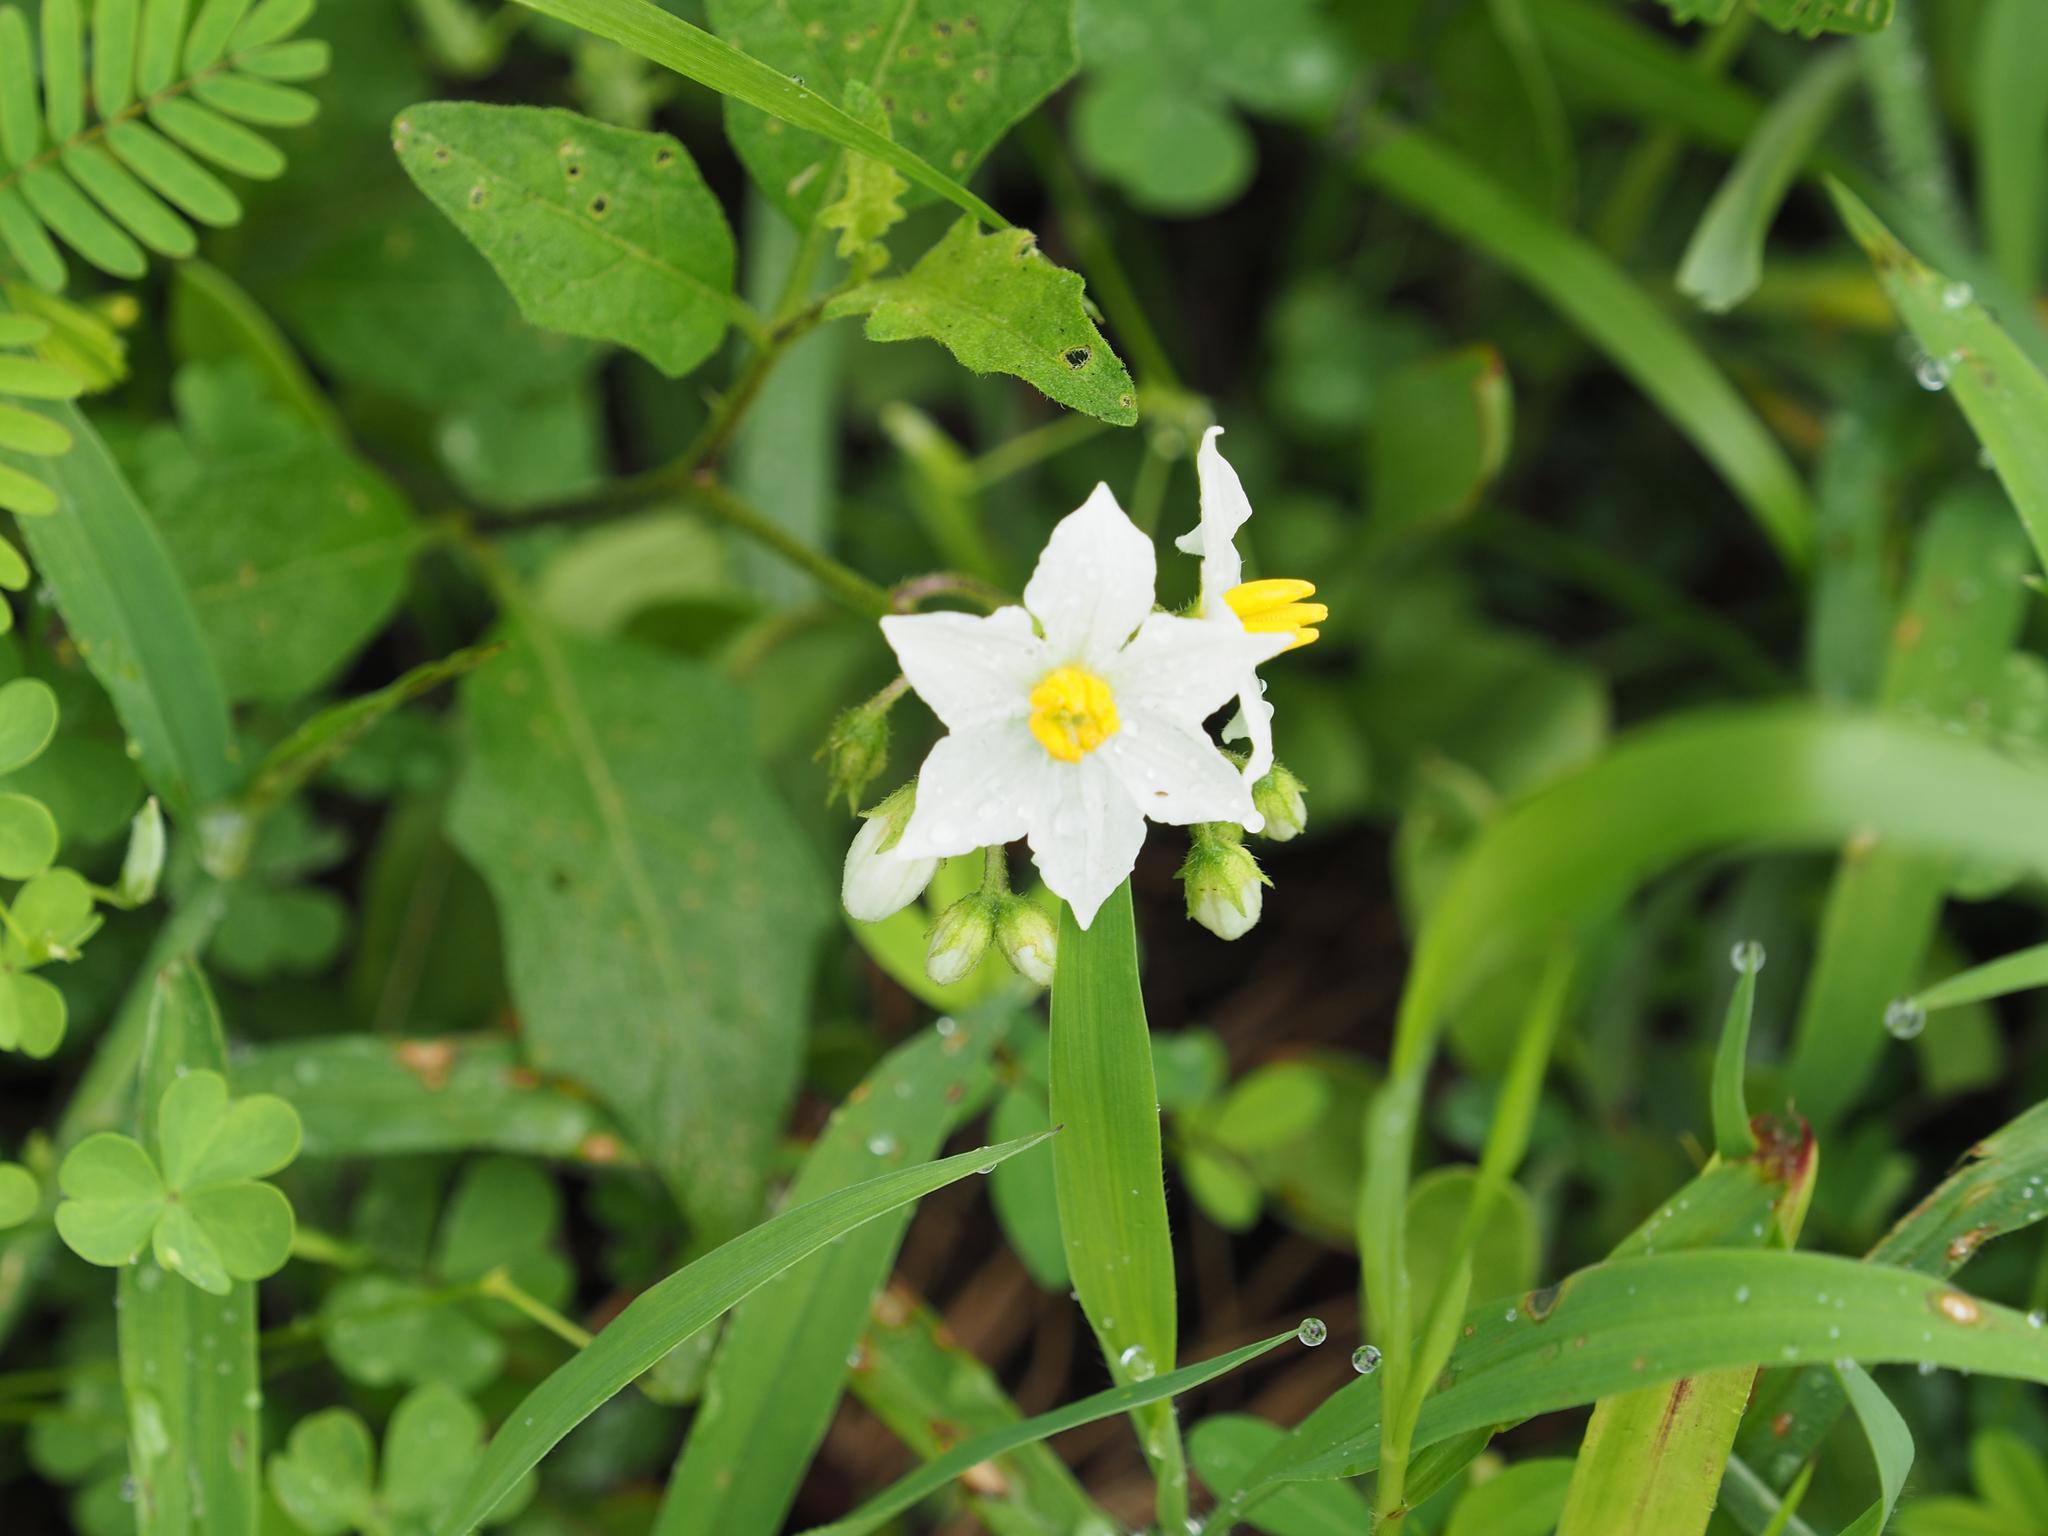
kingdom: Plantae
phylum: Tracheophyta
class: Magnoliopsida
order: Solanales
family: Solanaceae
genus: Solanum
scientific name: Solanum carolinense
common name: Horse-nettle
